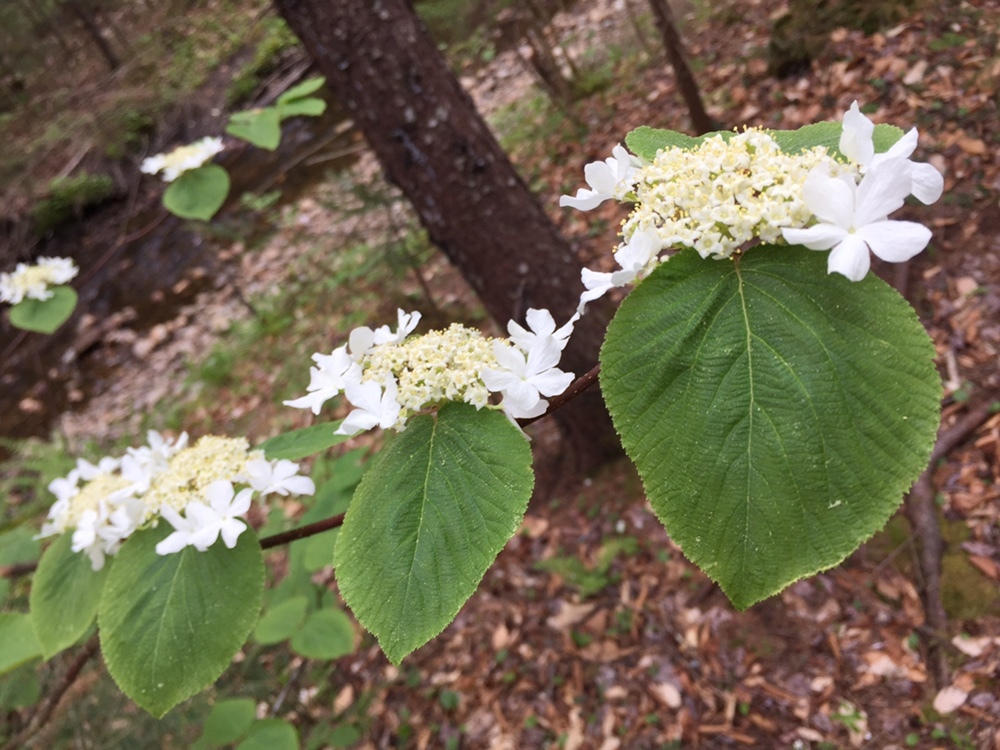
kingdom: Plantae
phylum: Tracheophyta
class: Magnoliopsida
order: Dipsacales
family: Viburnaceae
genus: Viburnum
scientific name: Viburnum lantanoides
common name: Hobblebush
